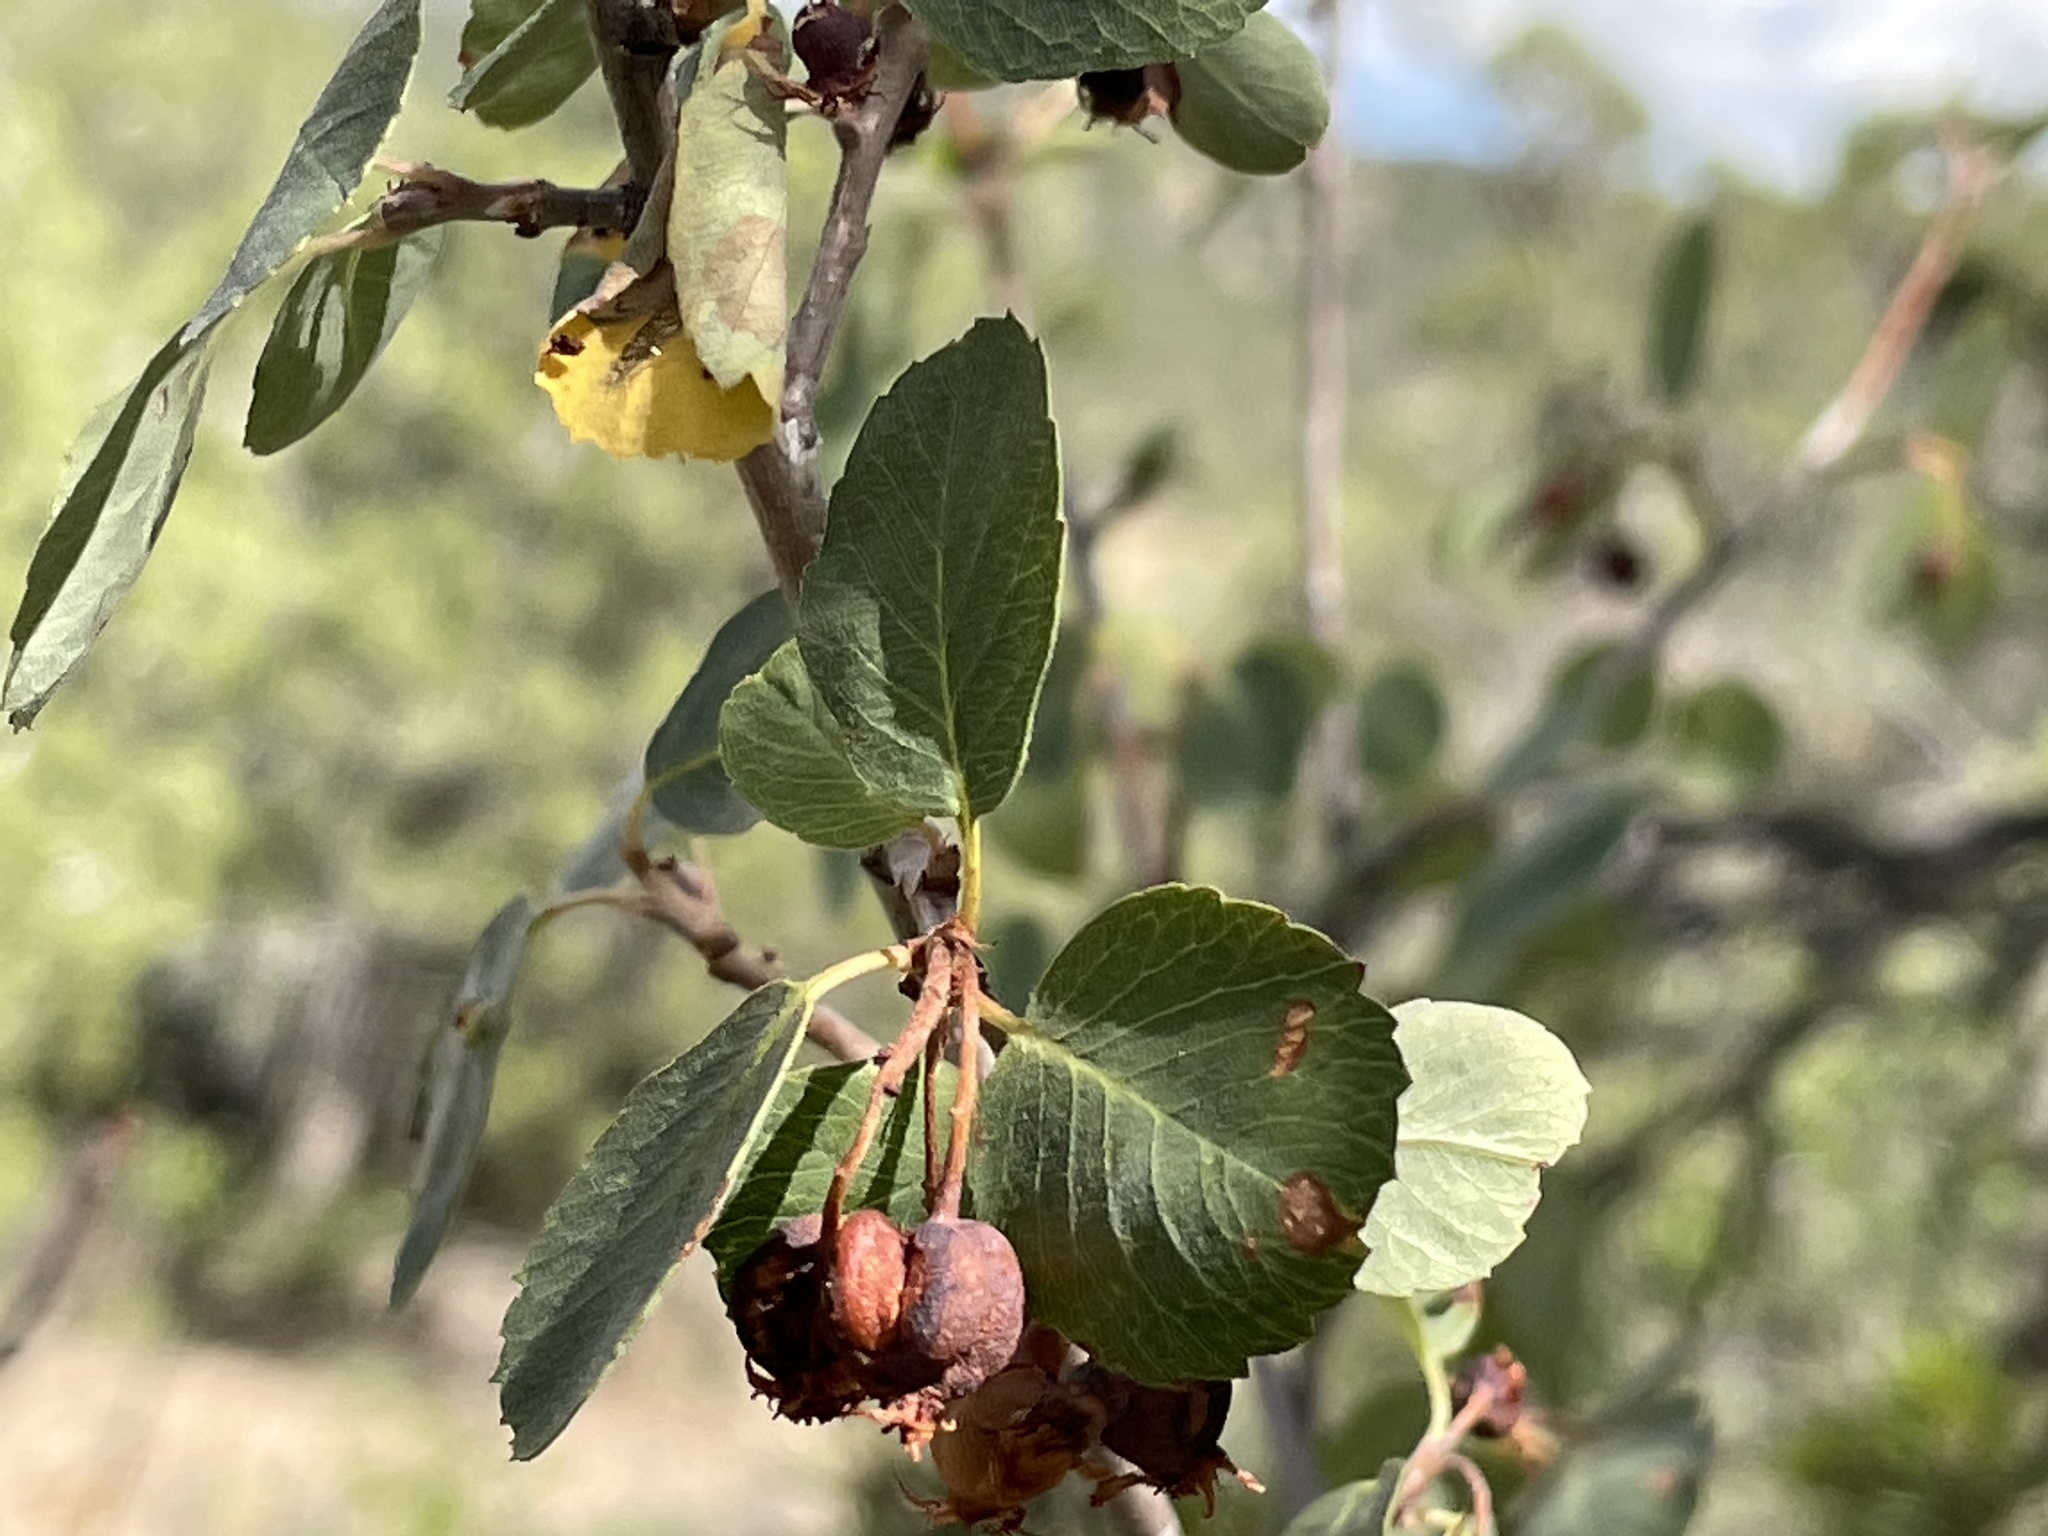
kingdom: Plantae
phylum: Tracheophyta
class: Magnoliopsida
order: Rosales
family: Rosaceae
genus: Amelanchier
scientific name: Amelanchier utahensis
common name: Utah serviceberry
